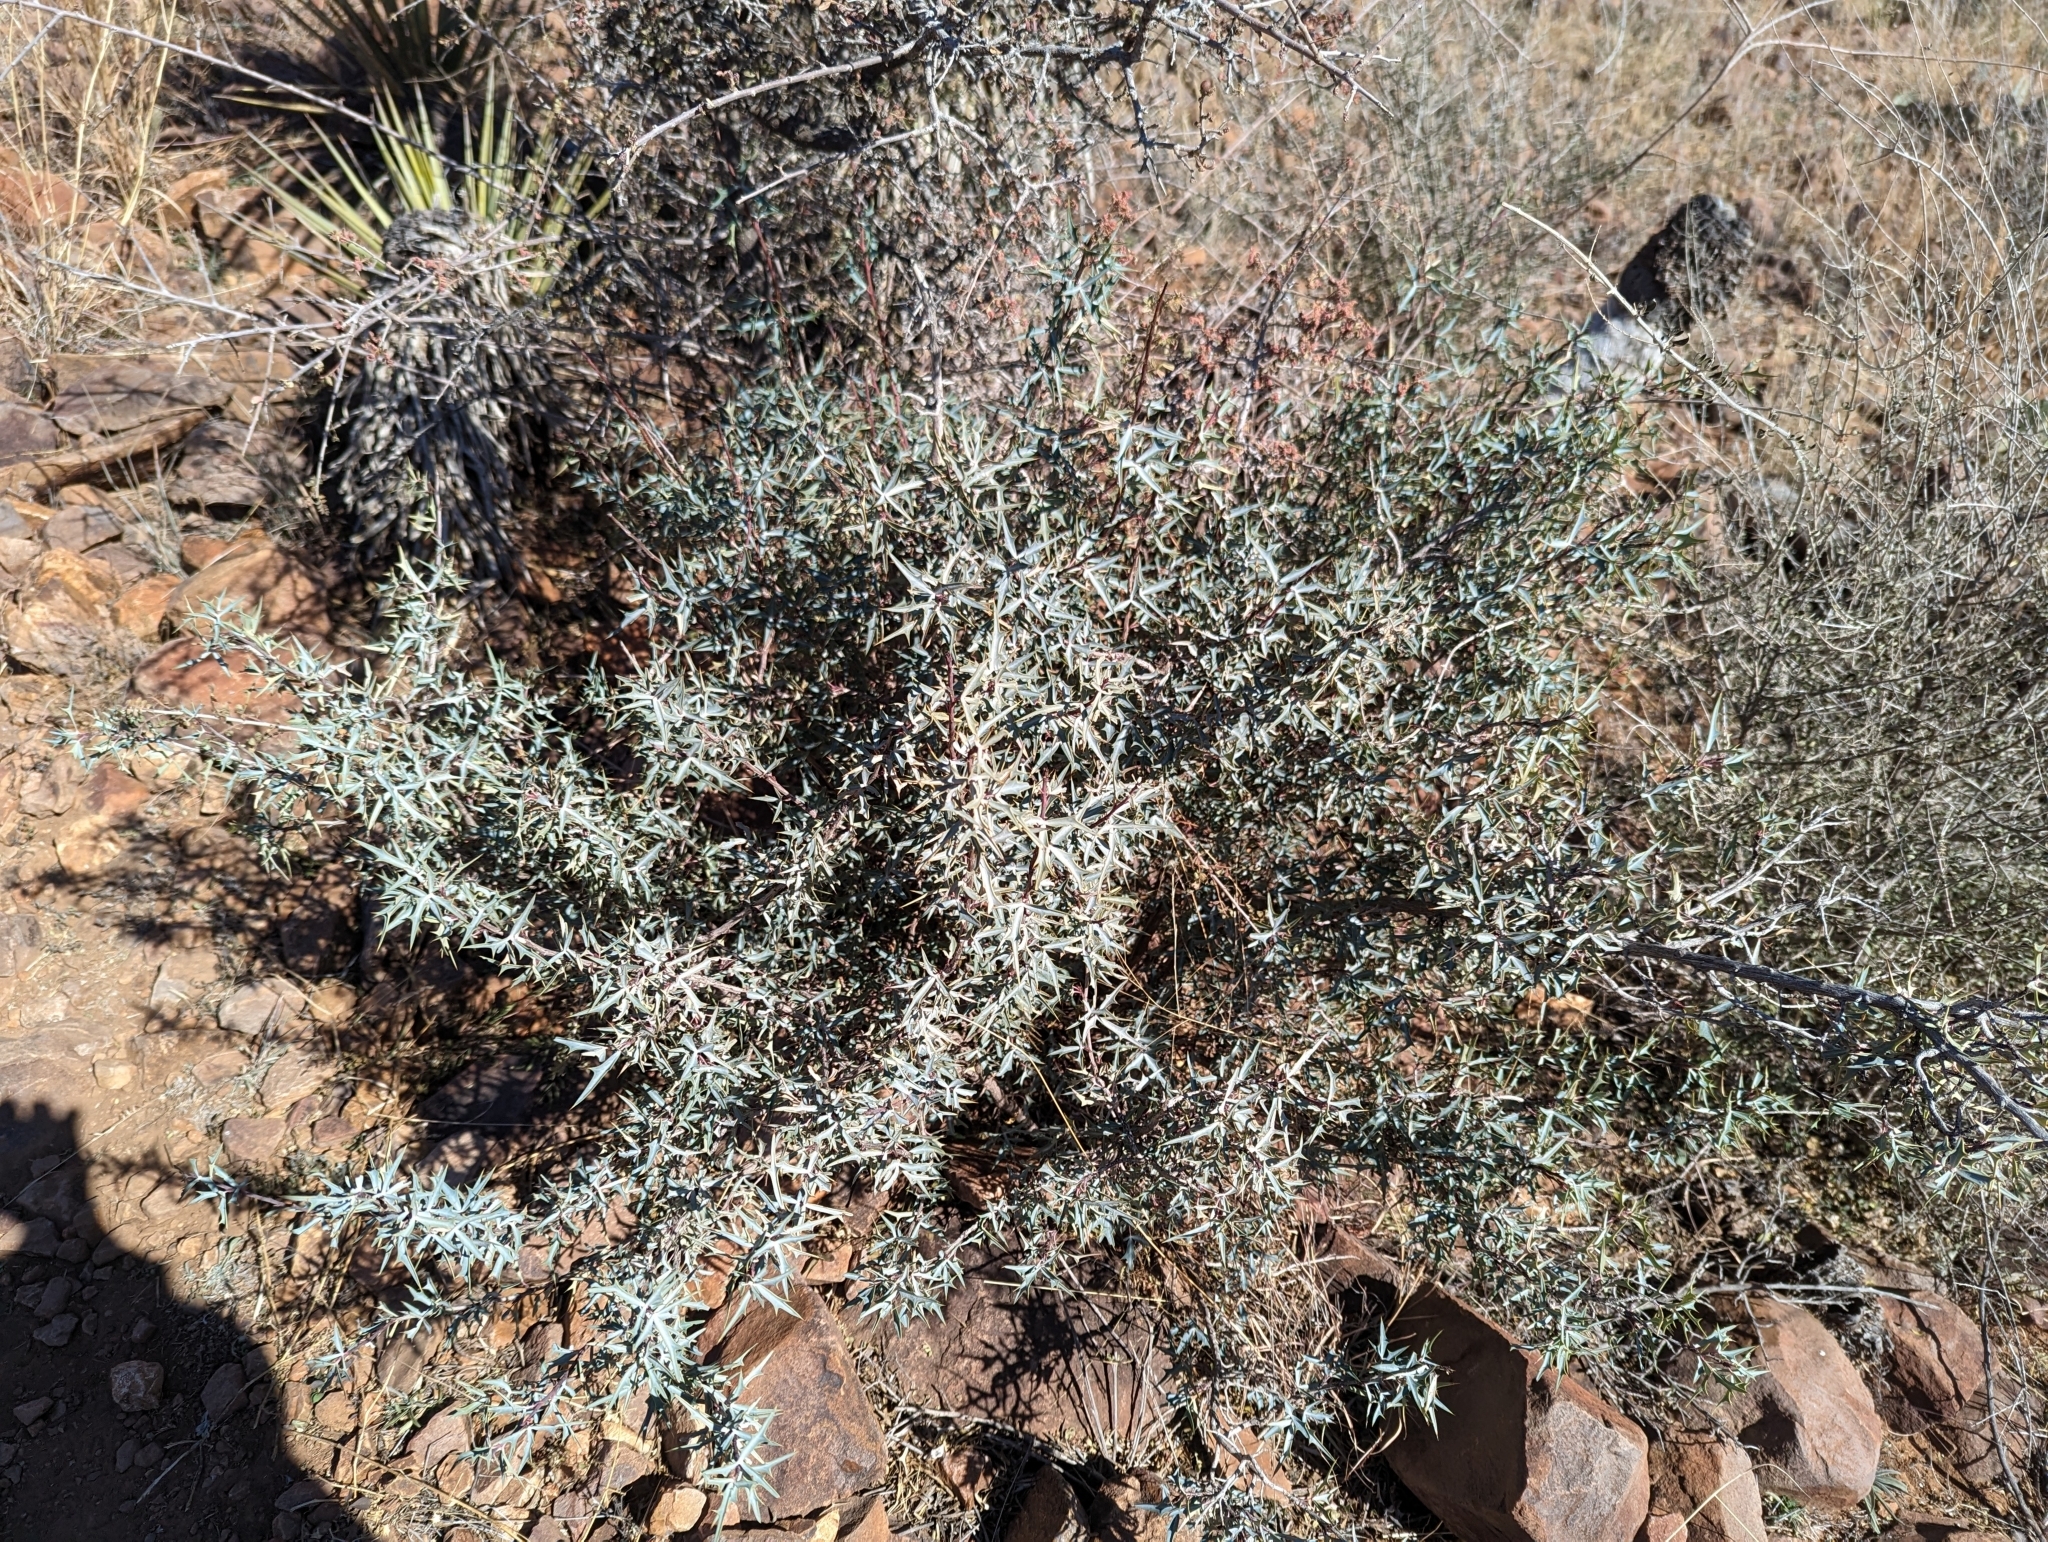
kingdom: Plantae
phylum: Tracheophyta
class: Magnoliopsida
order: Ranunculales
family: Berberidaceae
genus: Alloberberis
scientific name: Alloberberis trifoliolata
